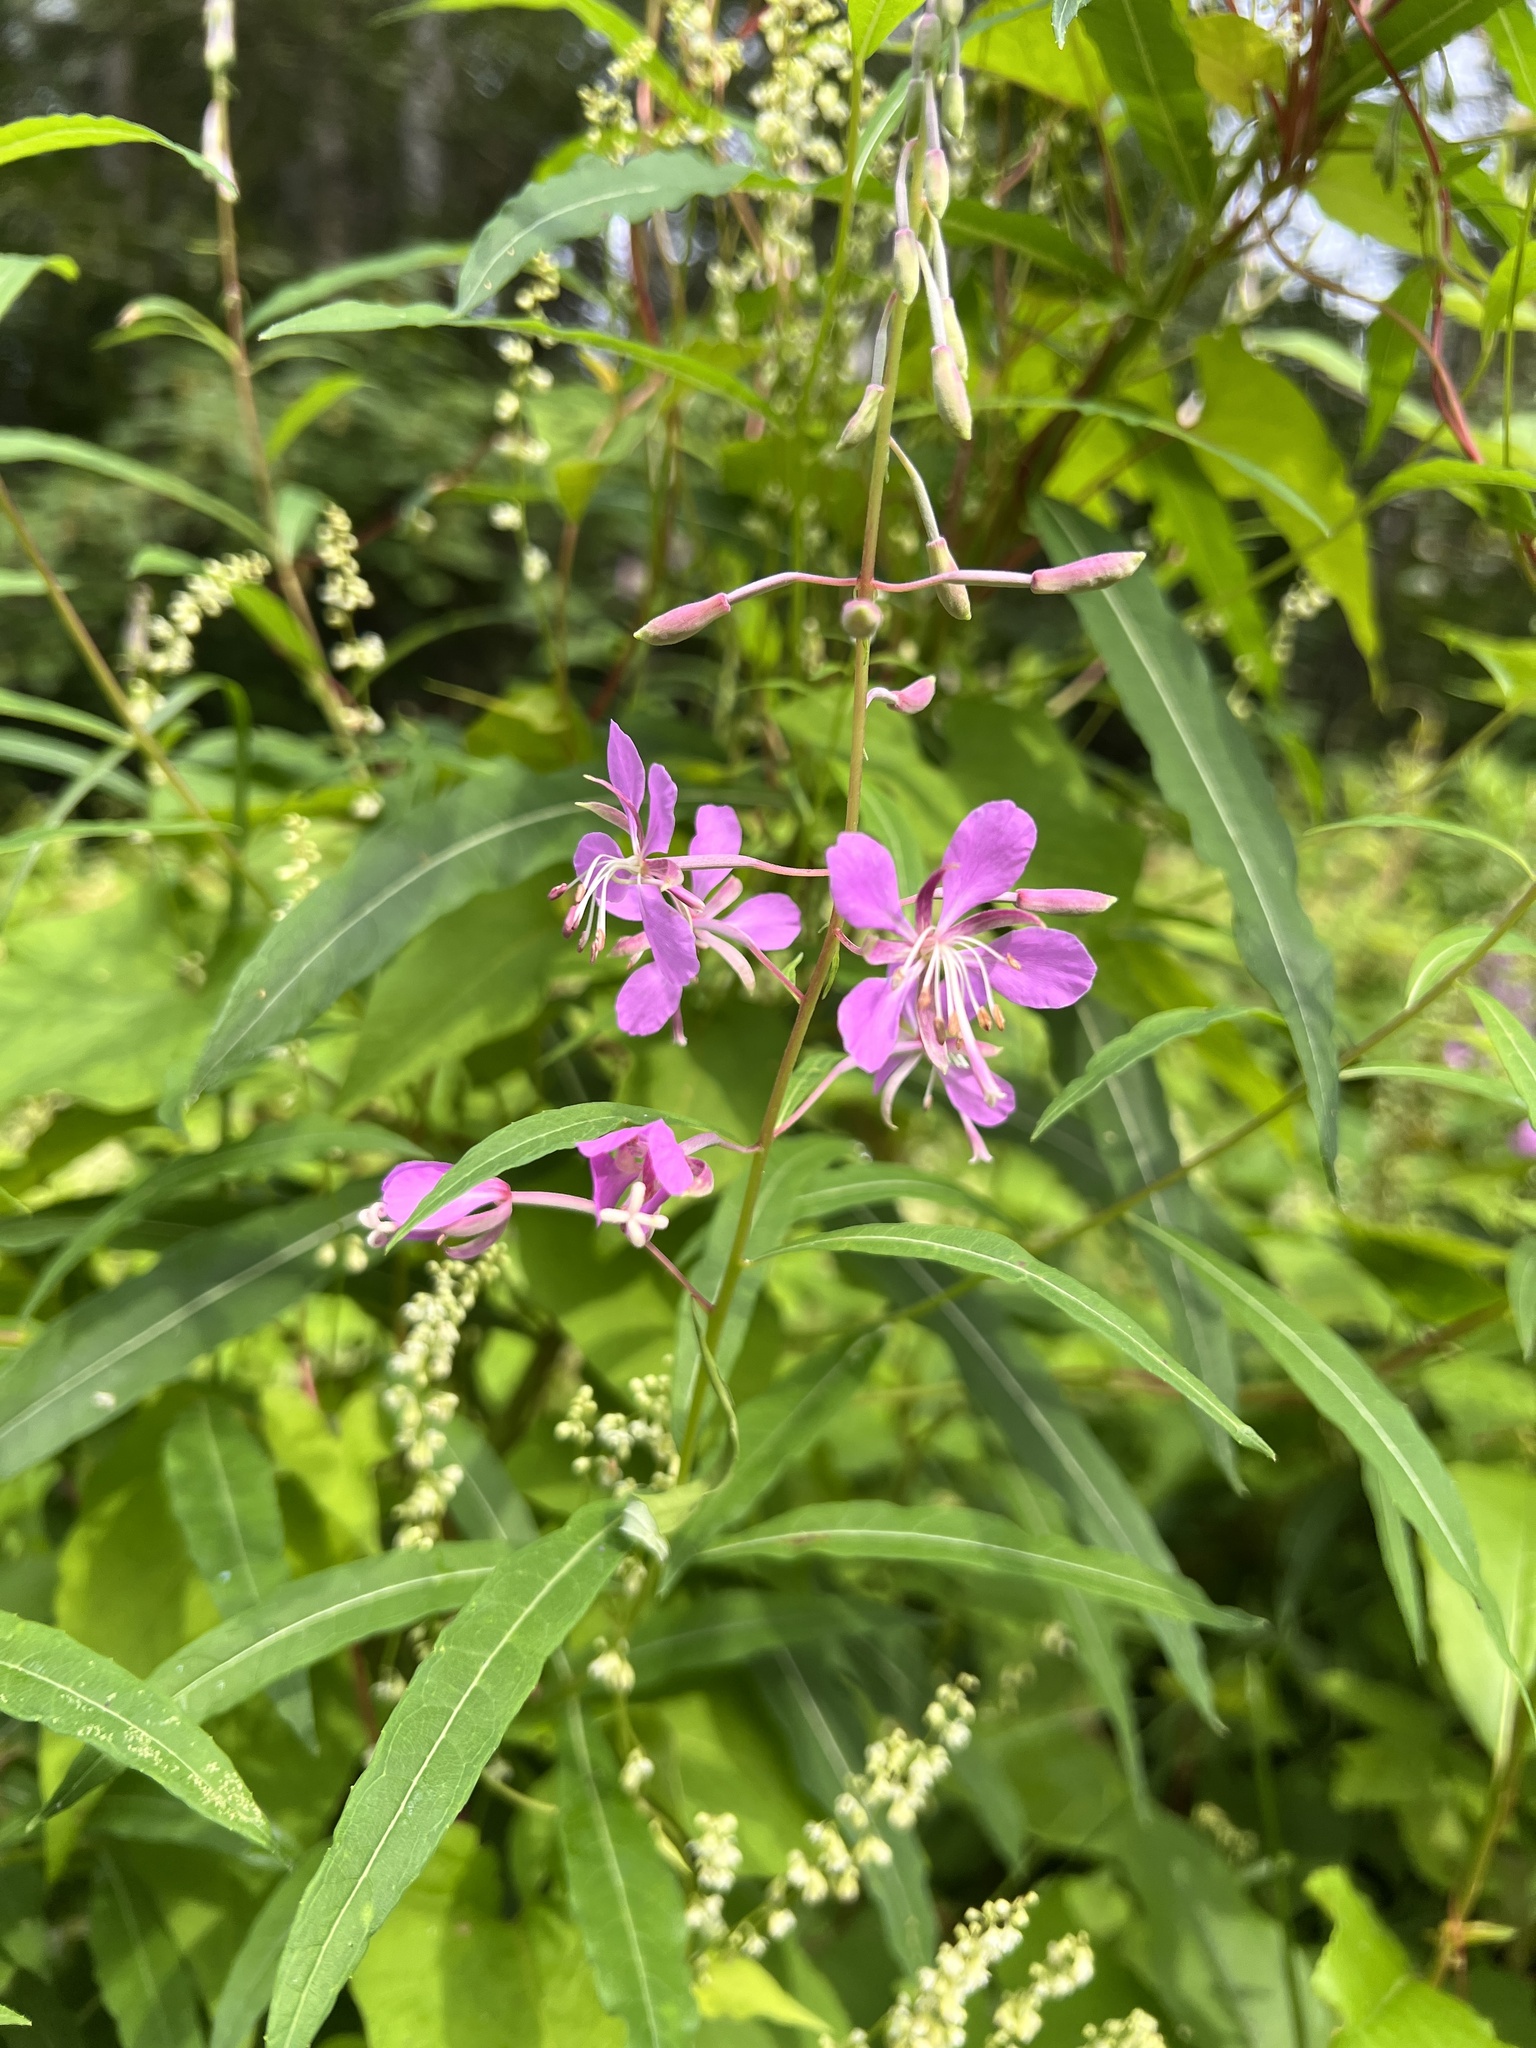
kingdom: Plantae
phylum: Tracheophyta
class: Magnoliopsida
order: Myrtales
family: Onagraceae
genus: Chamaenerion
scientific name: Chamaenerion angustifolium
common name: Fireweed
